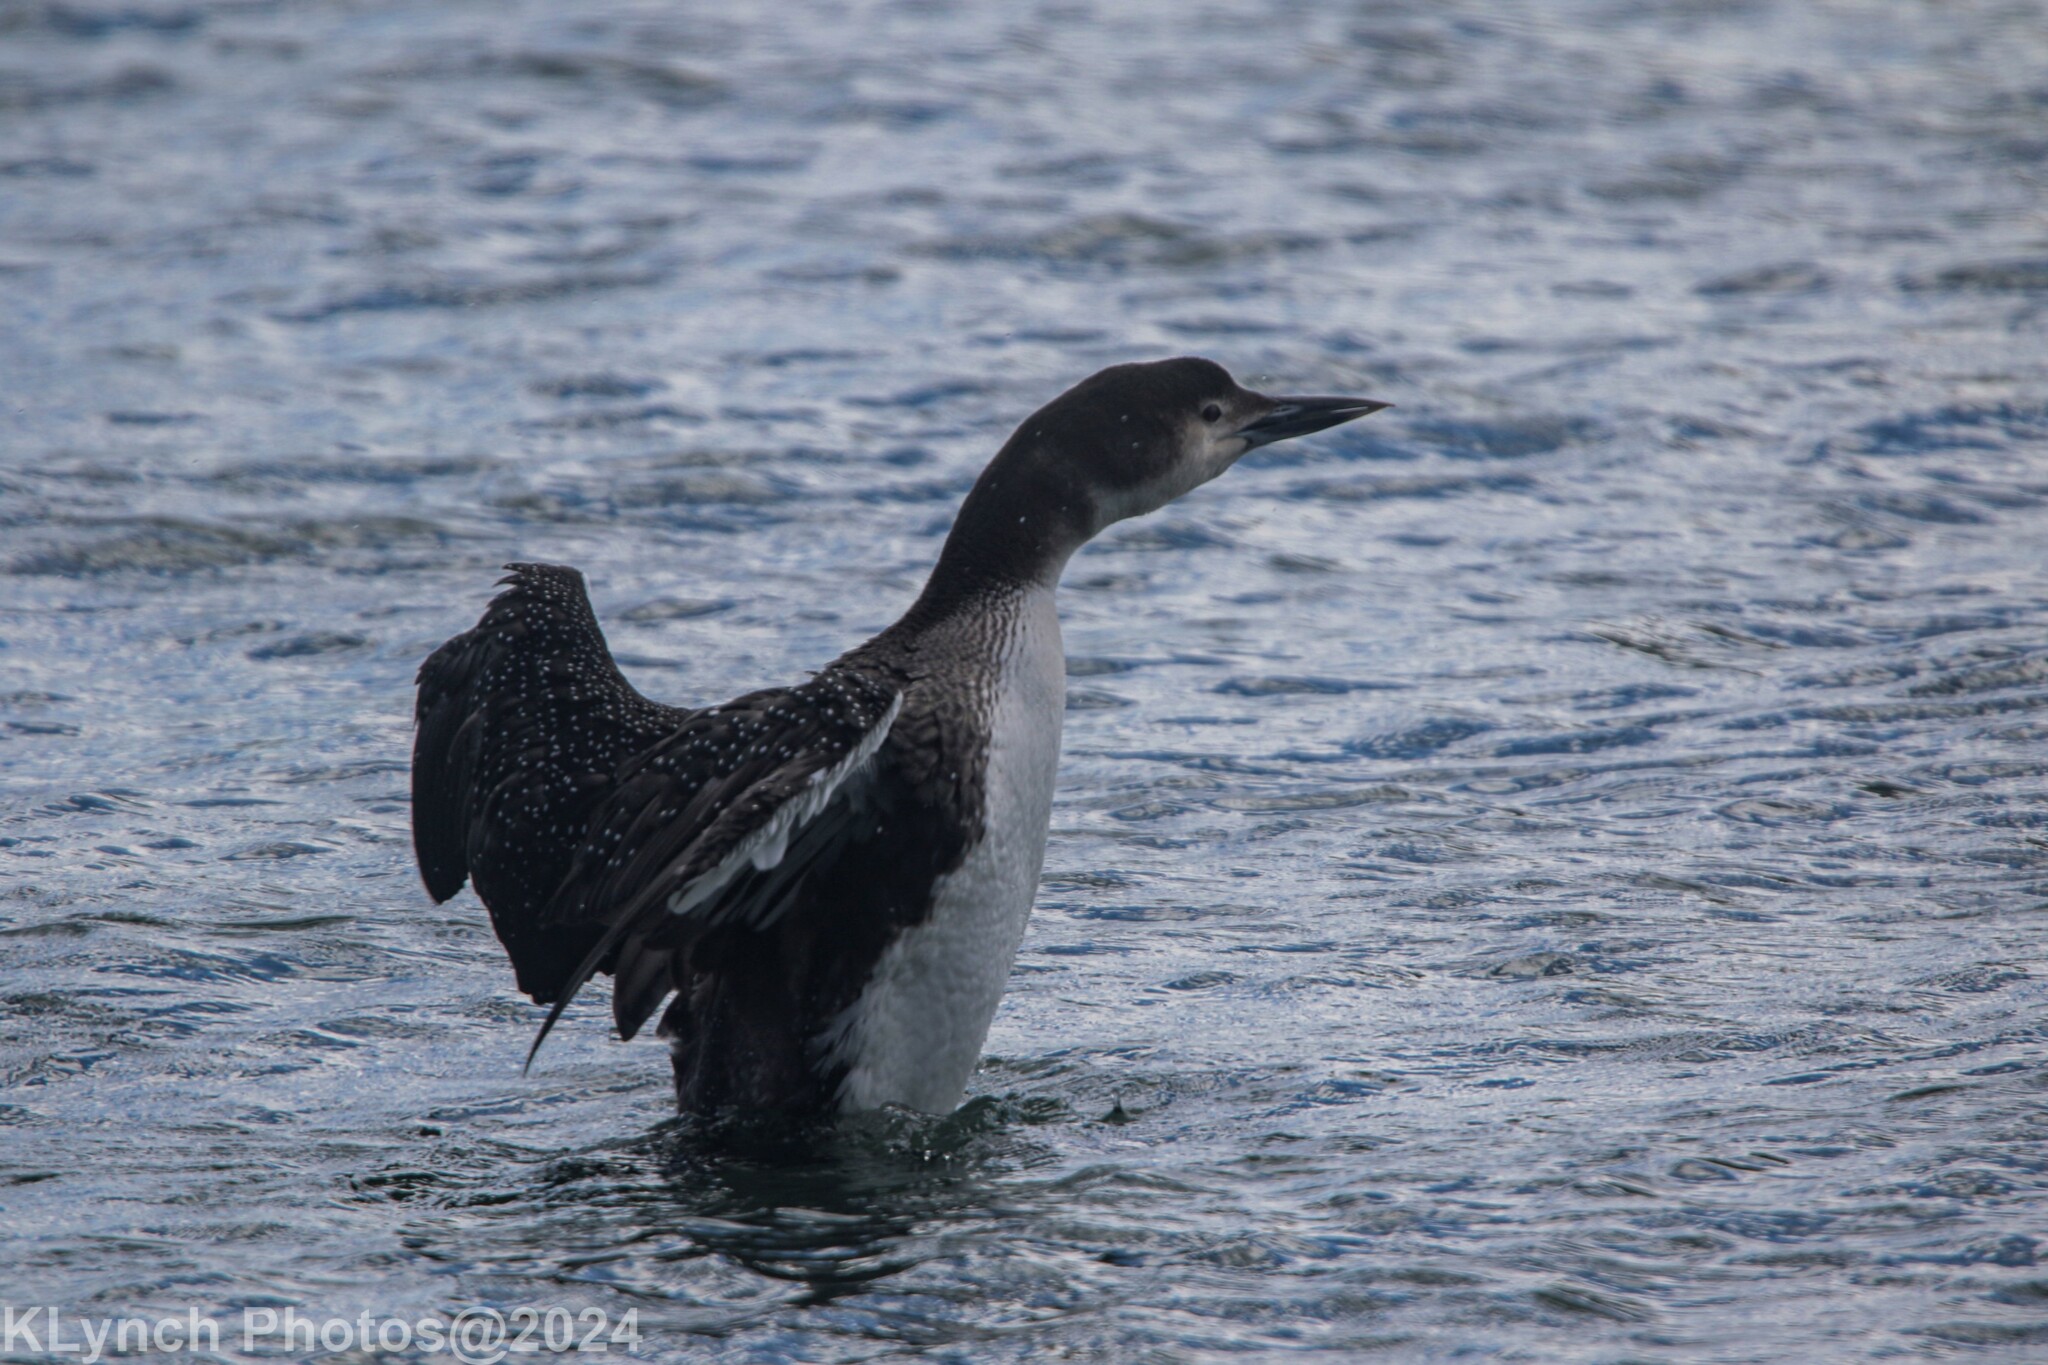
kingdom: Animalia
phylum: Chordata
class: Aves
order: Gaviiformes
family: Gaviidae
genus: Gavia
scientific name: Gavia immer
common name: Common loon
